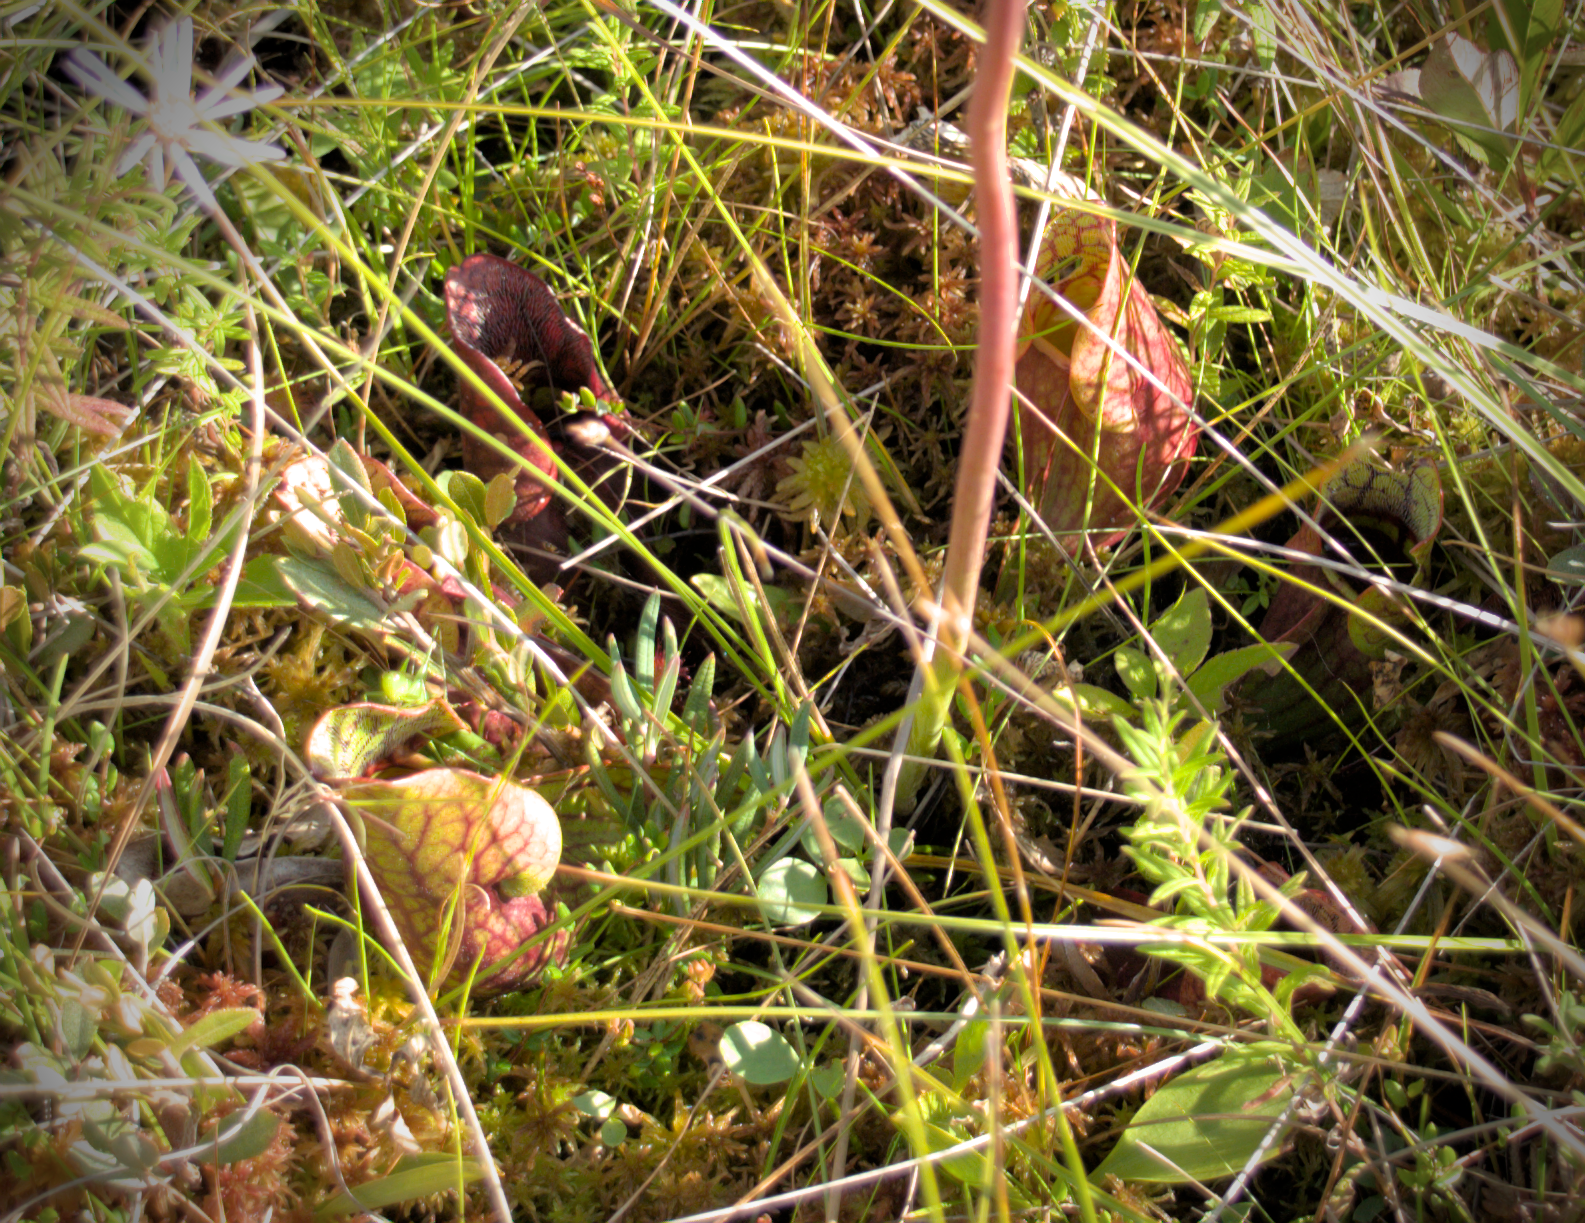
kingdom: Plantae
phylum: Tracheophyta
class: Magnoliopsida
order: Ericales
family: Sarraceniaceae
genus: Sarracenia
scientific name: Sarracenia purpurea
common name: Pitcherplant
